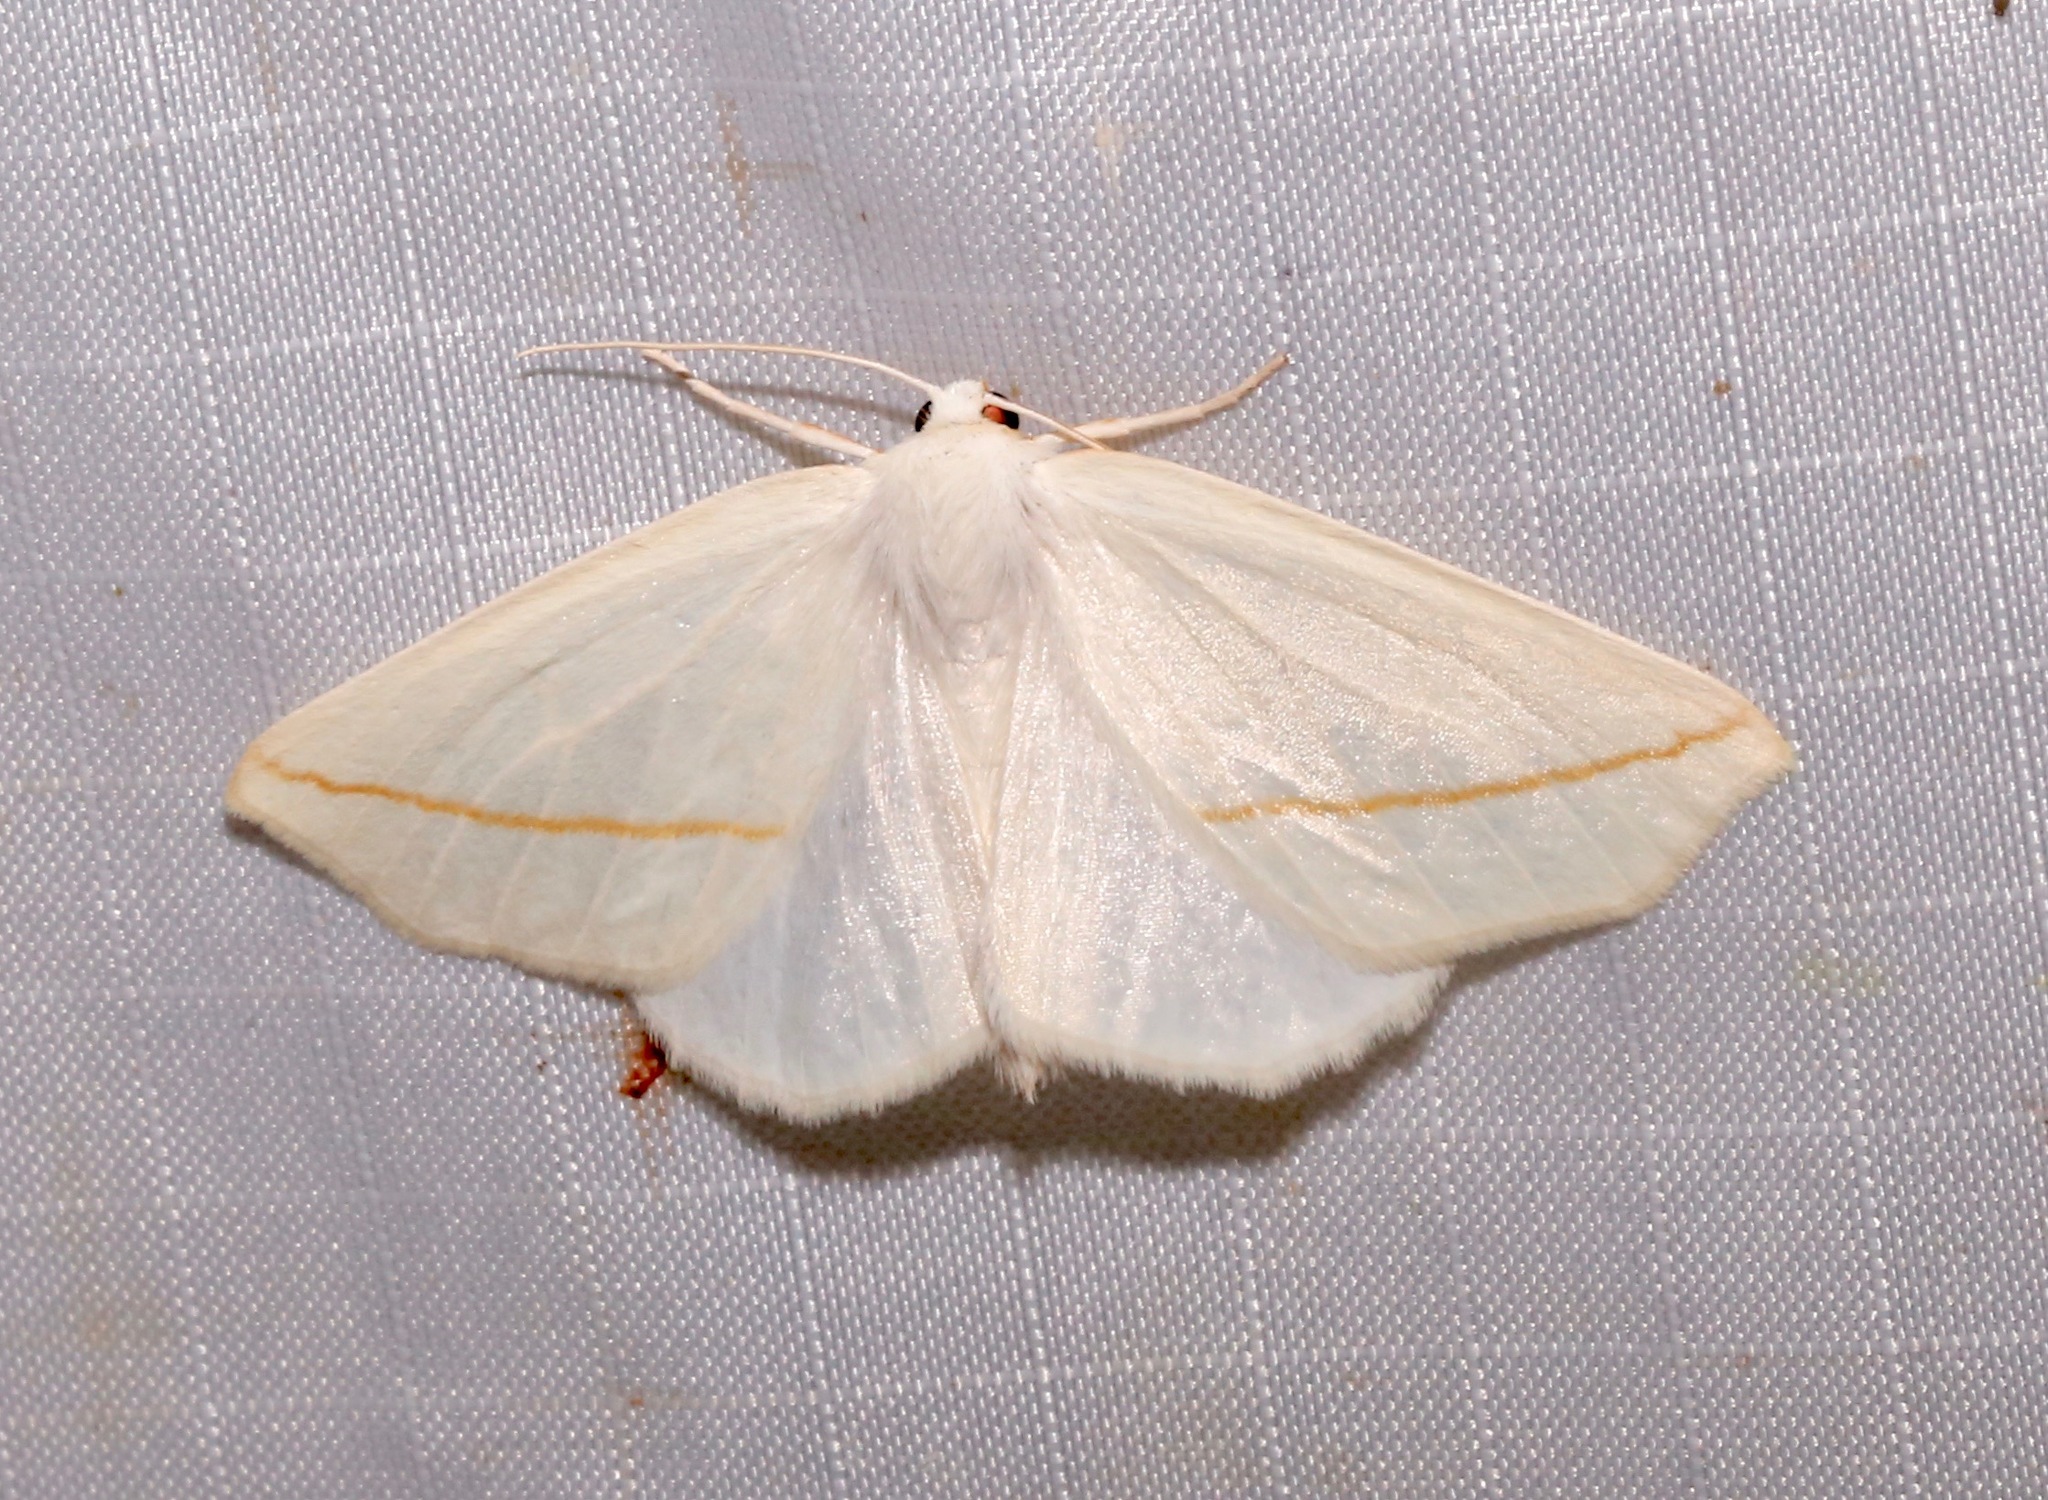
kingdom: Animalia
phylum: Arthropoda
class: Insecta
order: Lepidoptera
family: Geometridae
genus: Tetracis
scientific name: Tetracis cachexiata
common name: White slant-line
